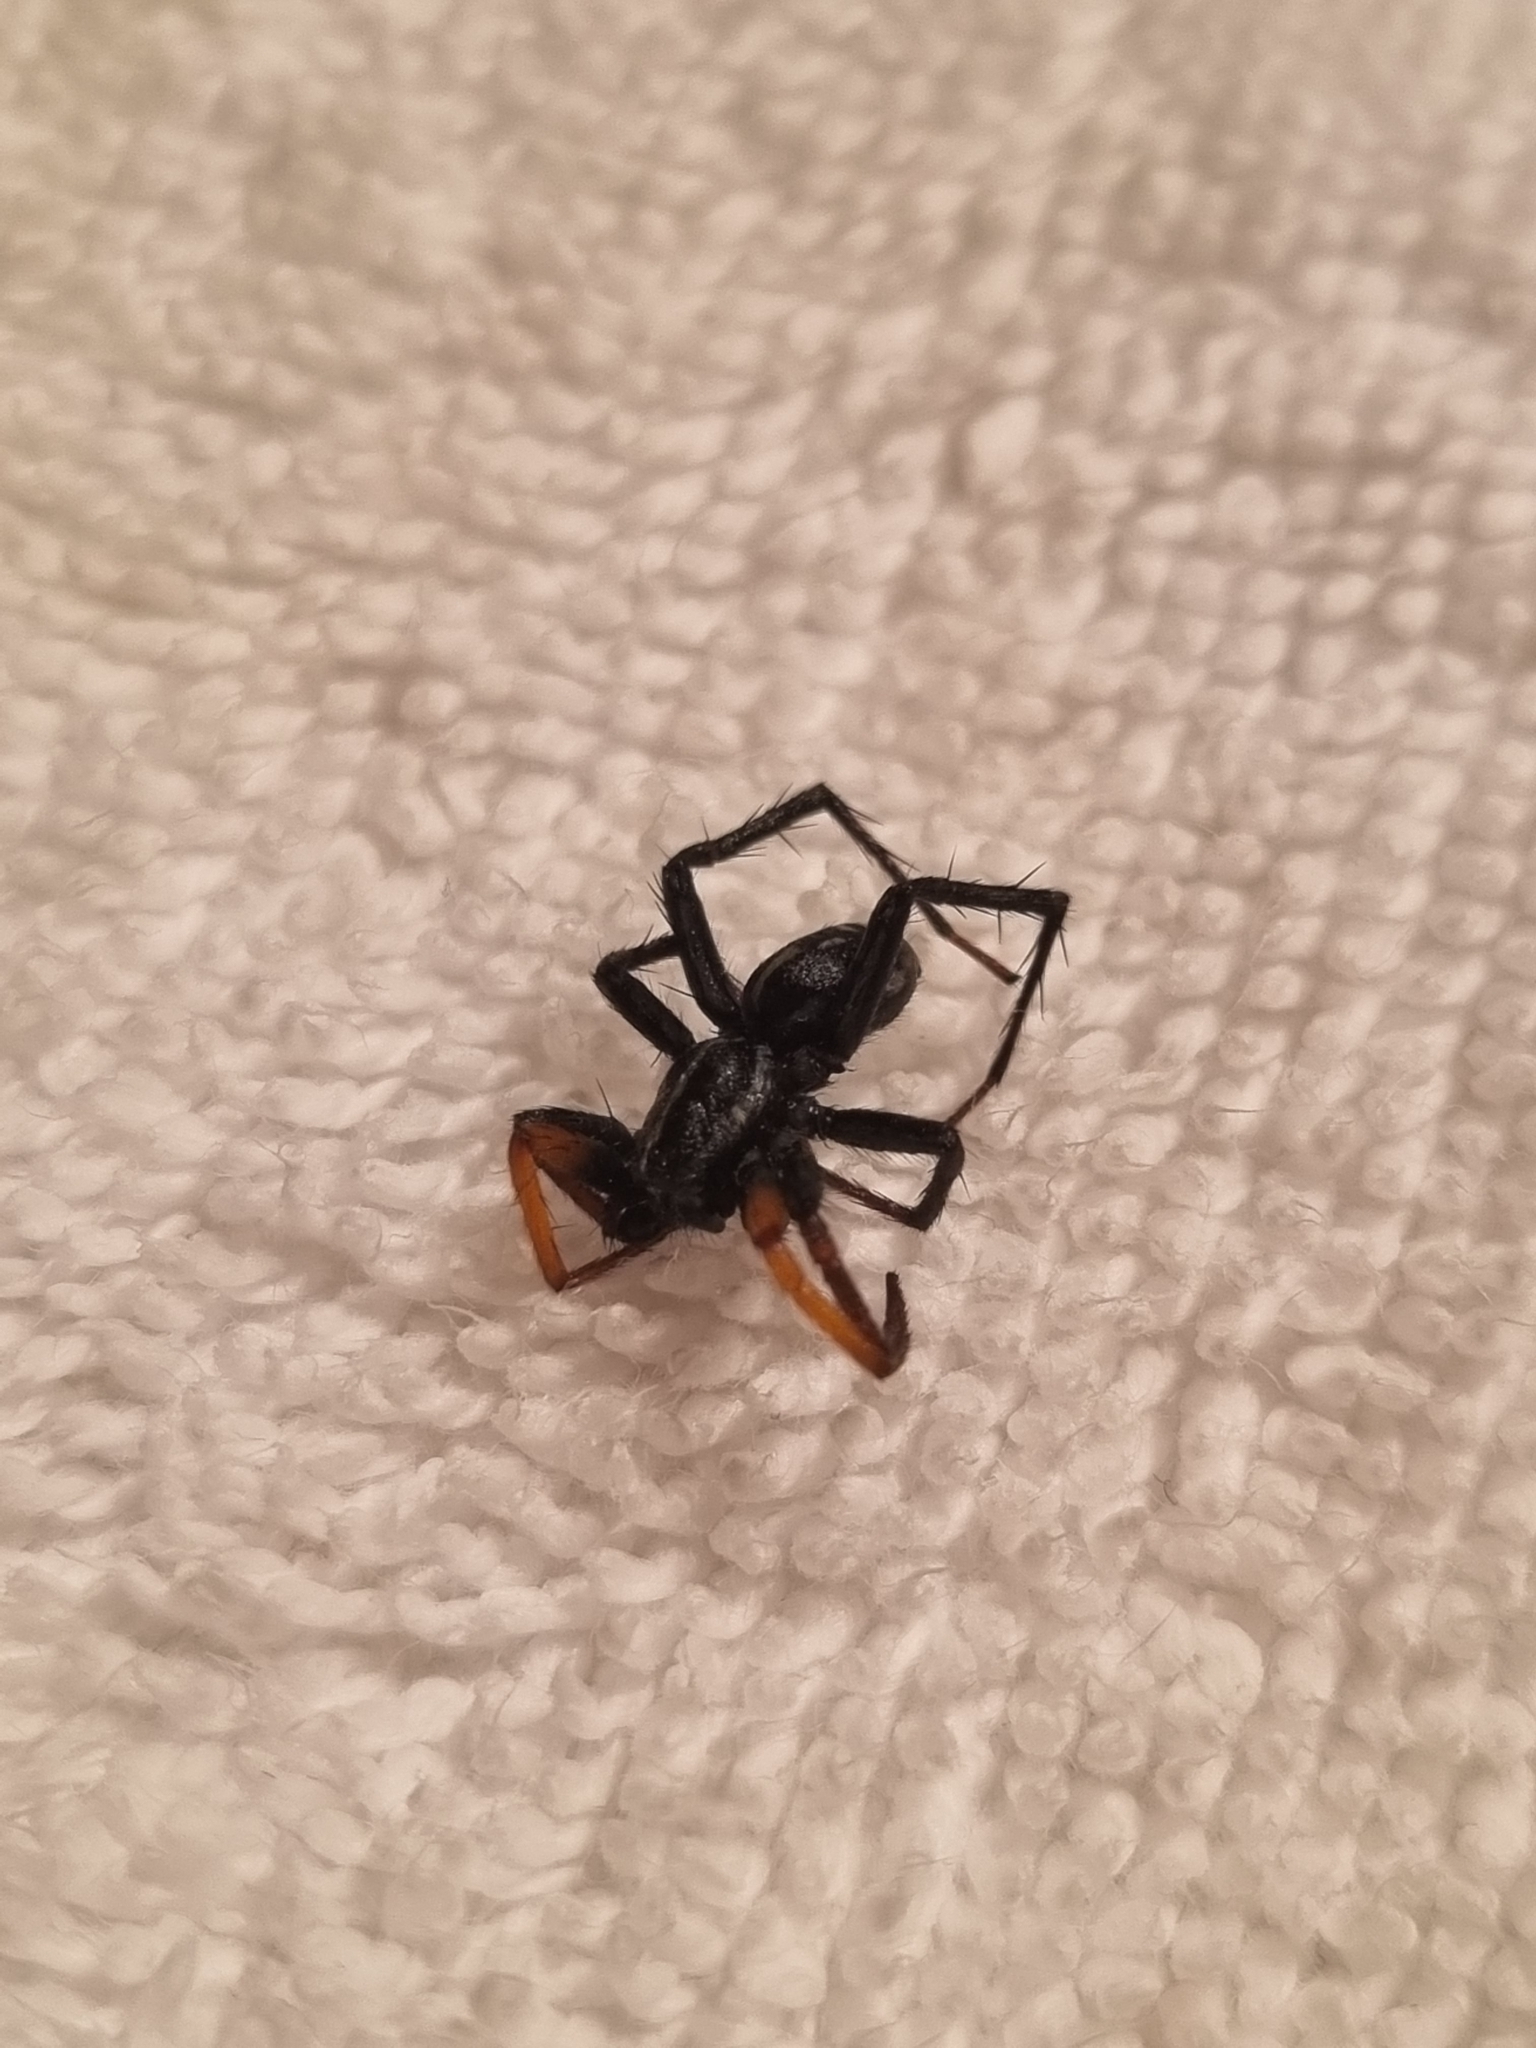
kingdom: Animalia
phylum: Arthropoda
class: Arachnida
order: Araneae
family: Corinnidae
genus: Nyssus
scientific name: Nyssus coloripes
